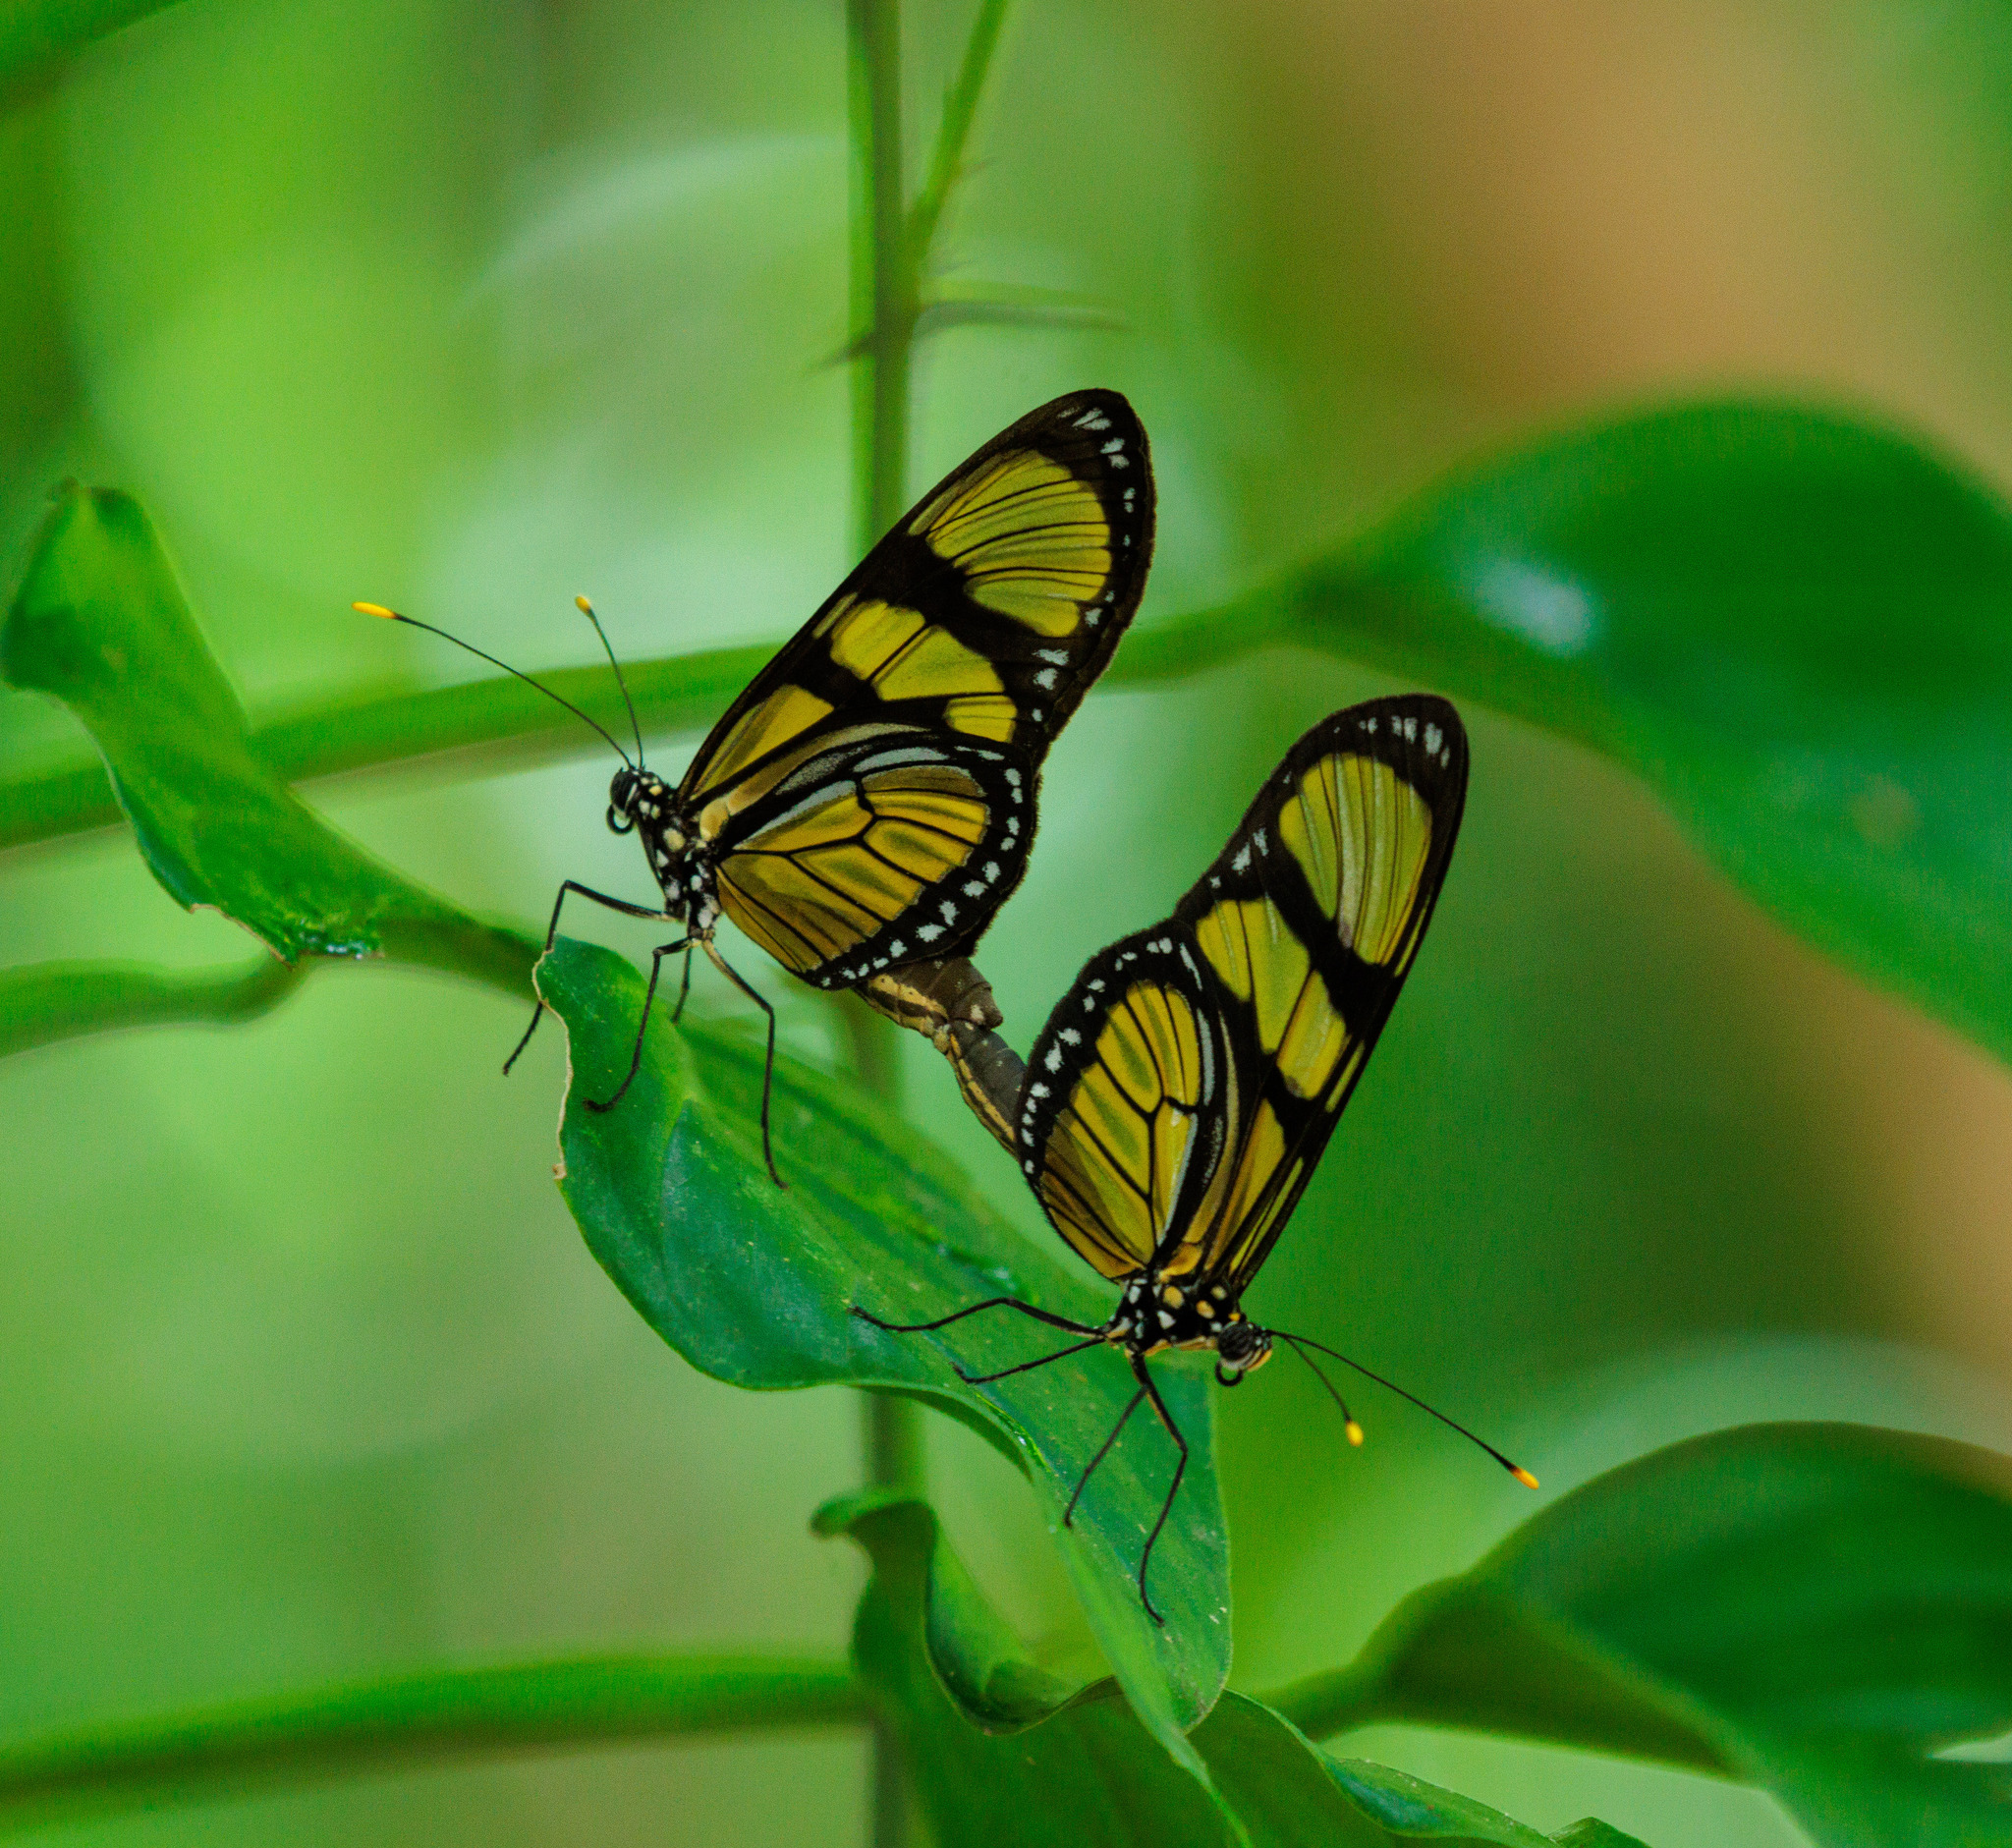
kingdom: Animalia
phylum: Arthropoda
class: Insecta
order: Lepidoptera
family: Nymphalidae
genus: Methona
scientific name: Methona singularis
